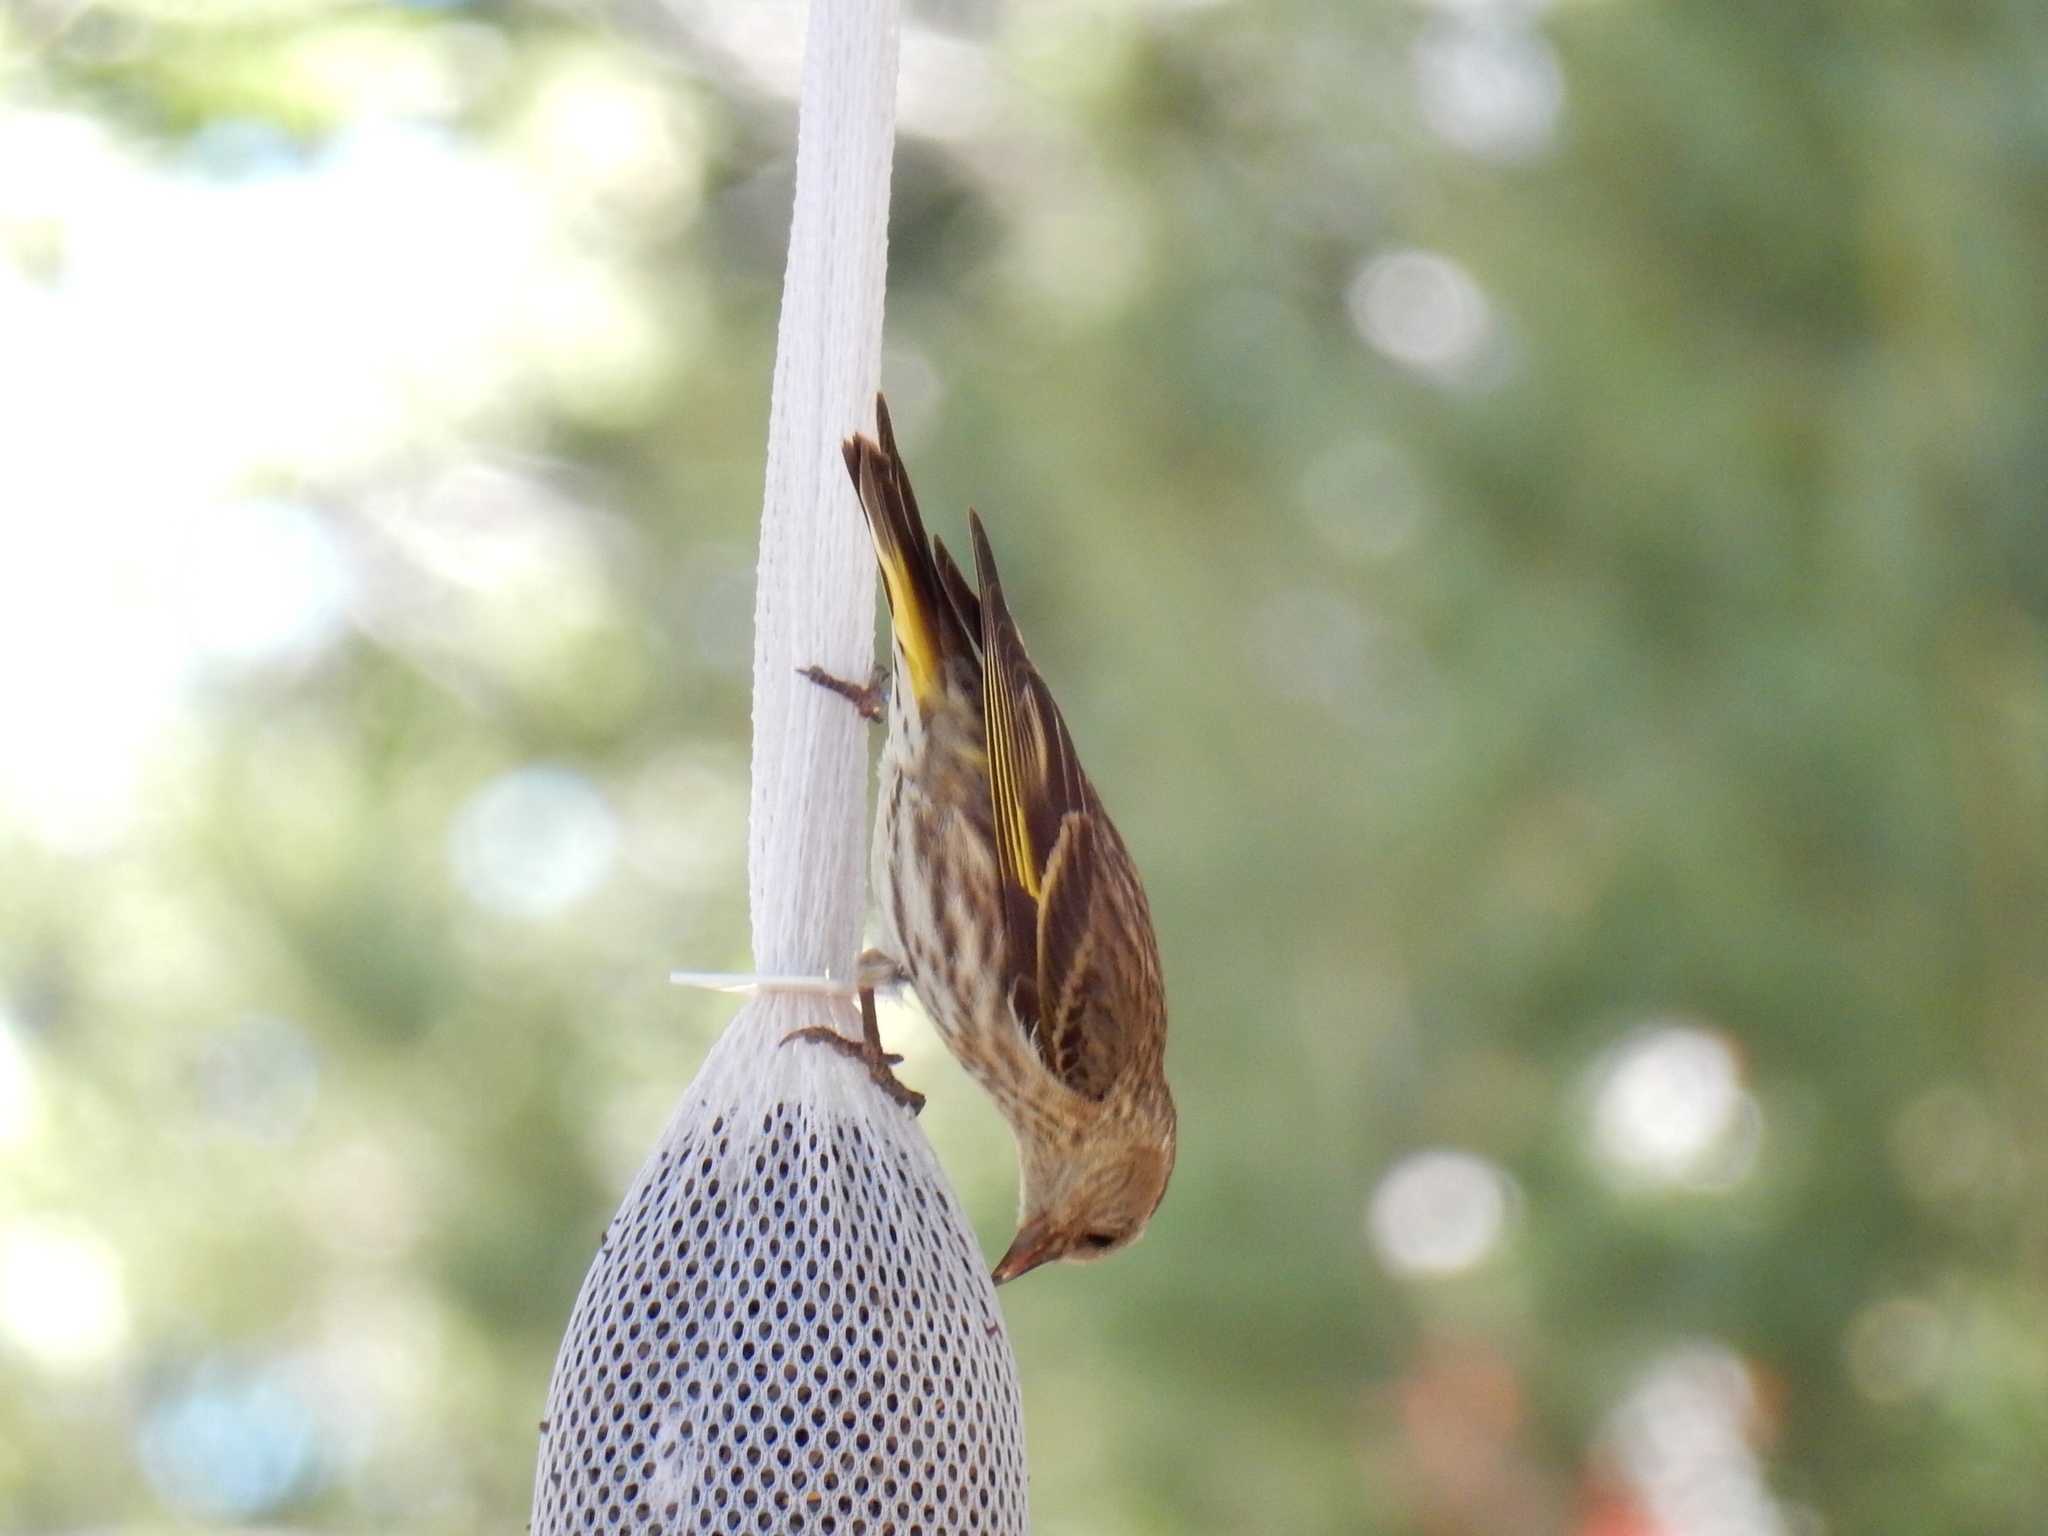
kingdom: Animalia
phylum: Chordata
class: Aves
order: Passeriformes
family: Fringillidae
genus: Spinus
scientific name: Spinus pinus
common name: Pine siskin
